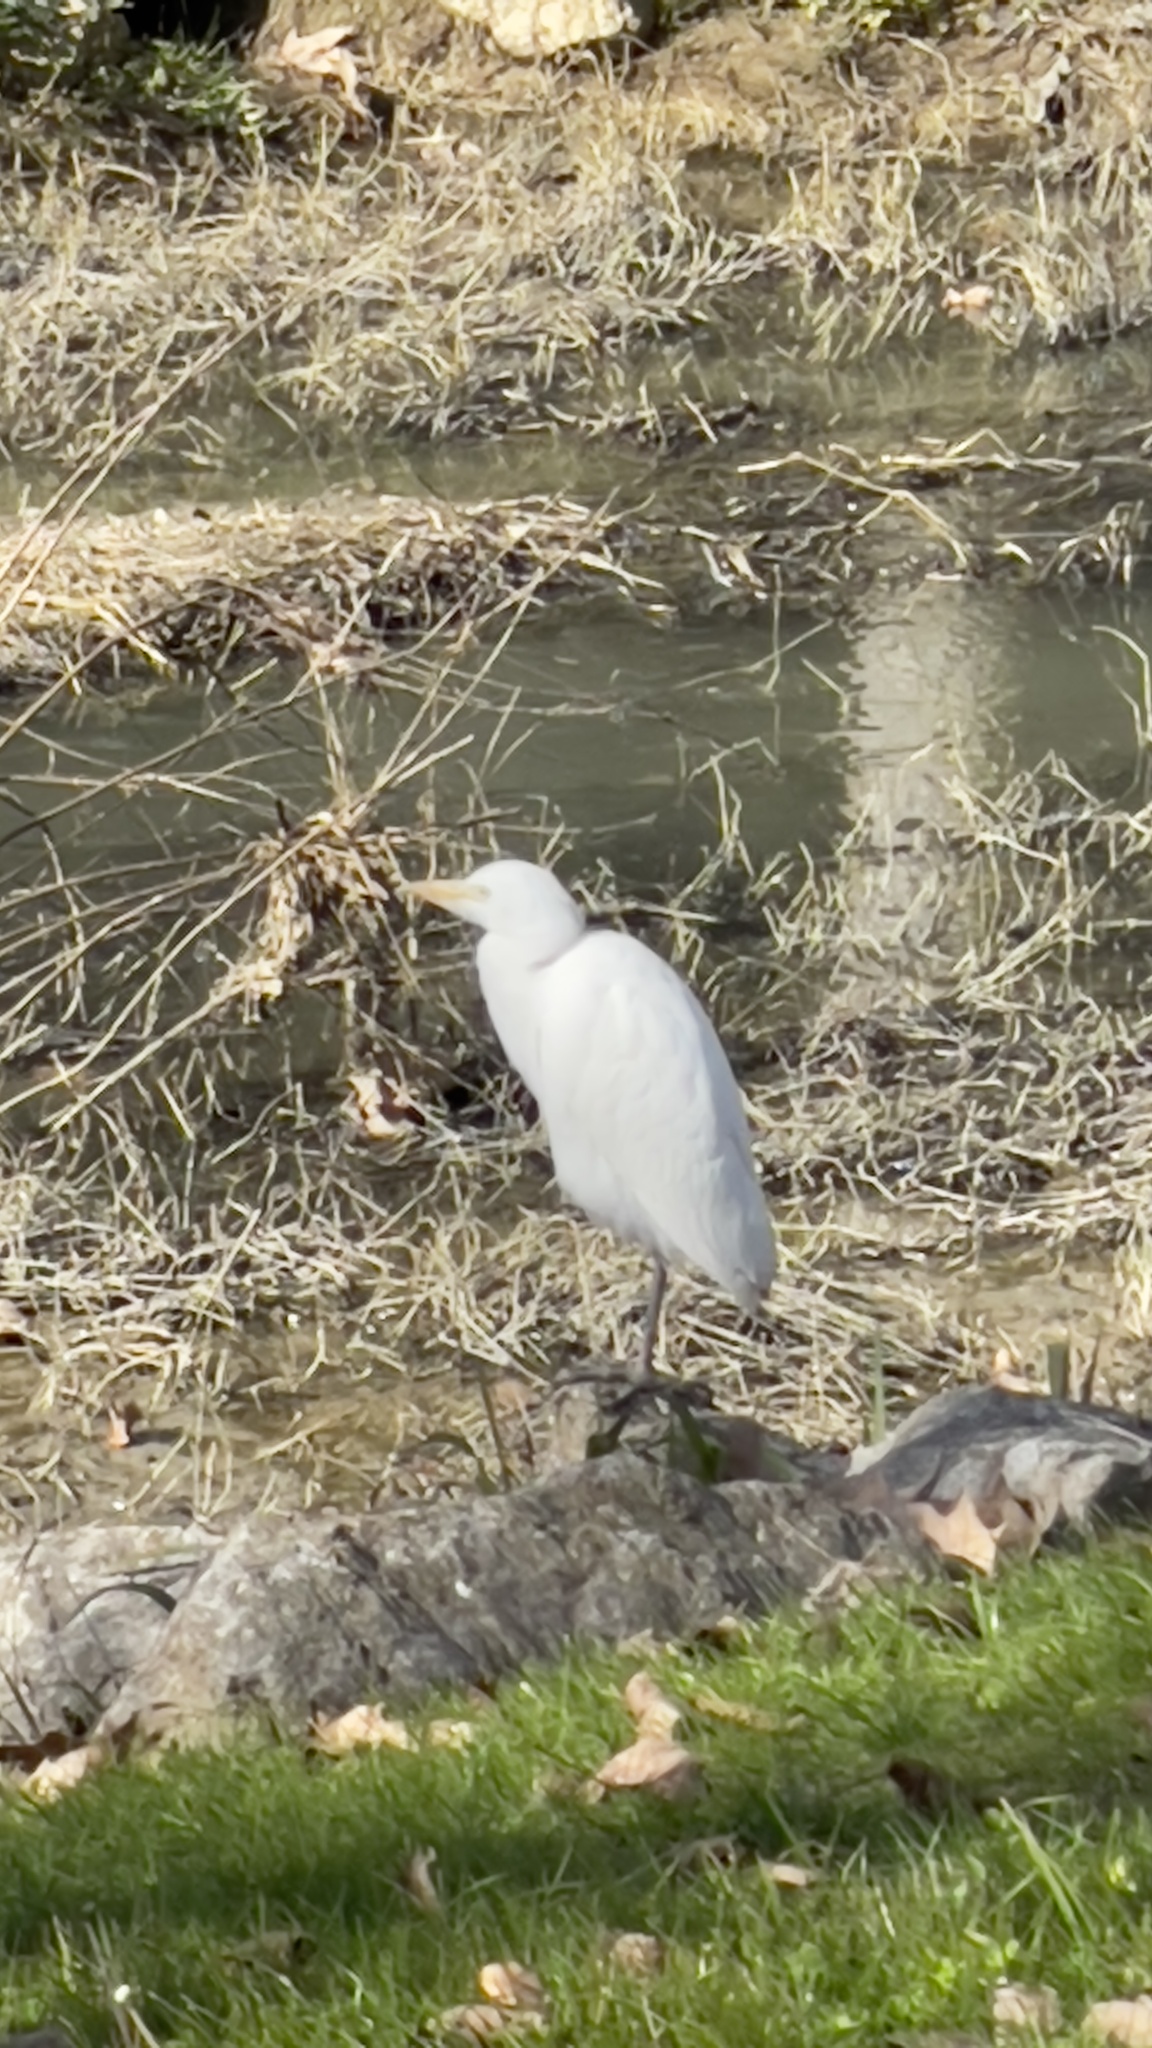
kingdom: Animalia
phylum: Chordata
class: Aves
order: Pelecaniformes
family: Ardeidae
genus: Bubulcus
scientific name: Bubulcus ibis
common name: Cattle egret
